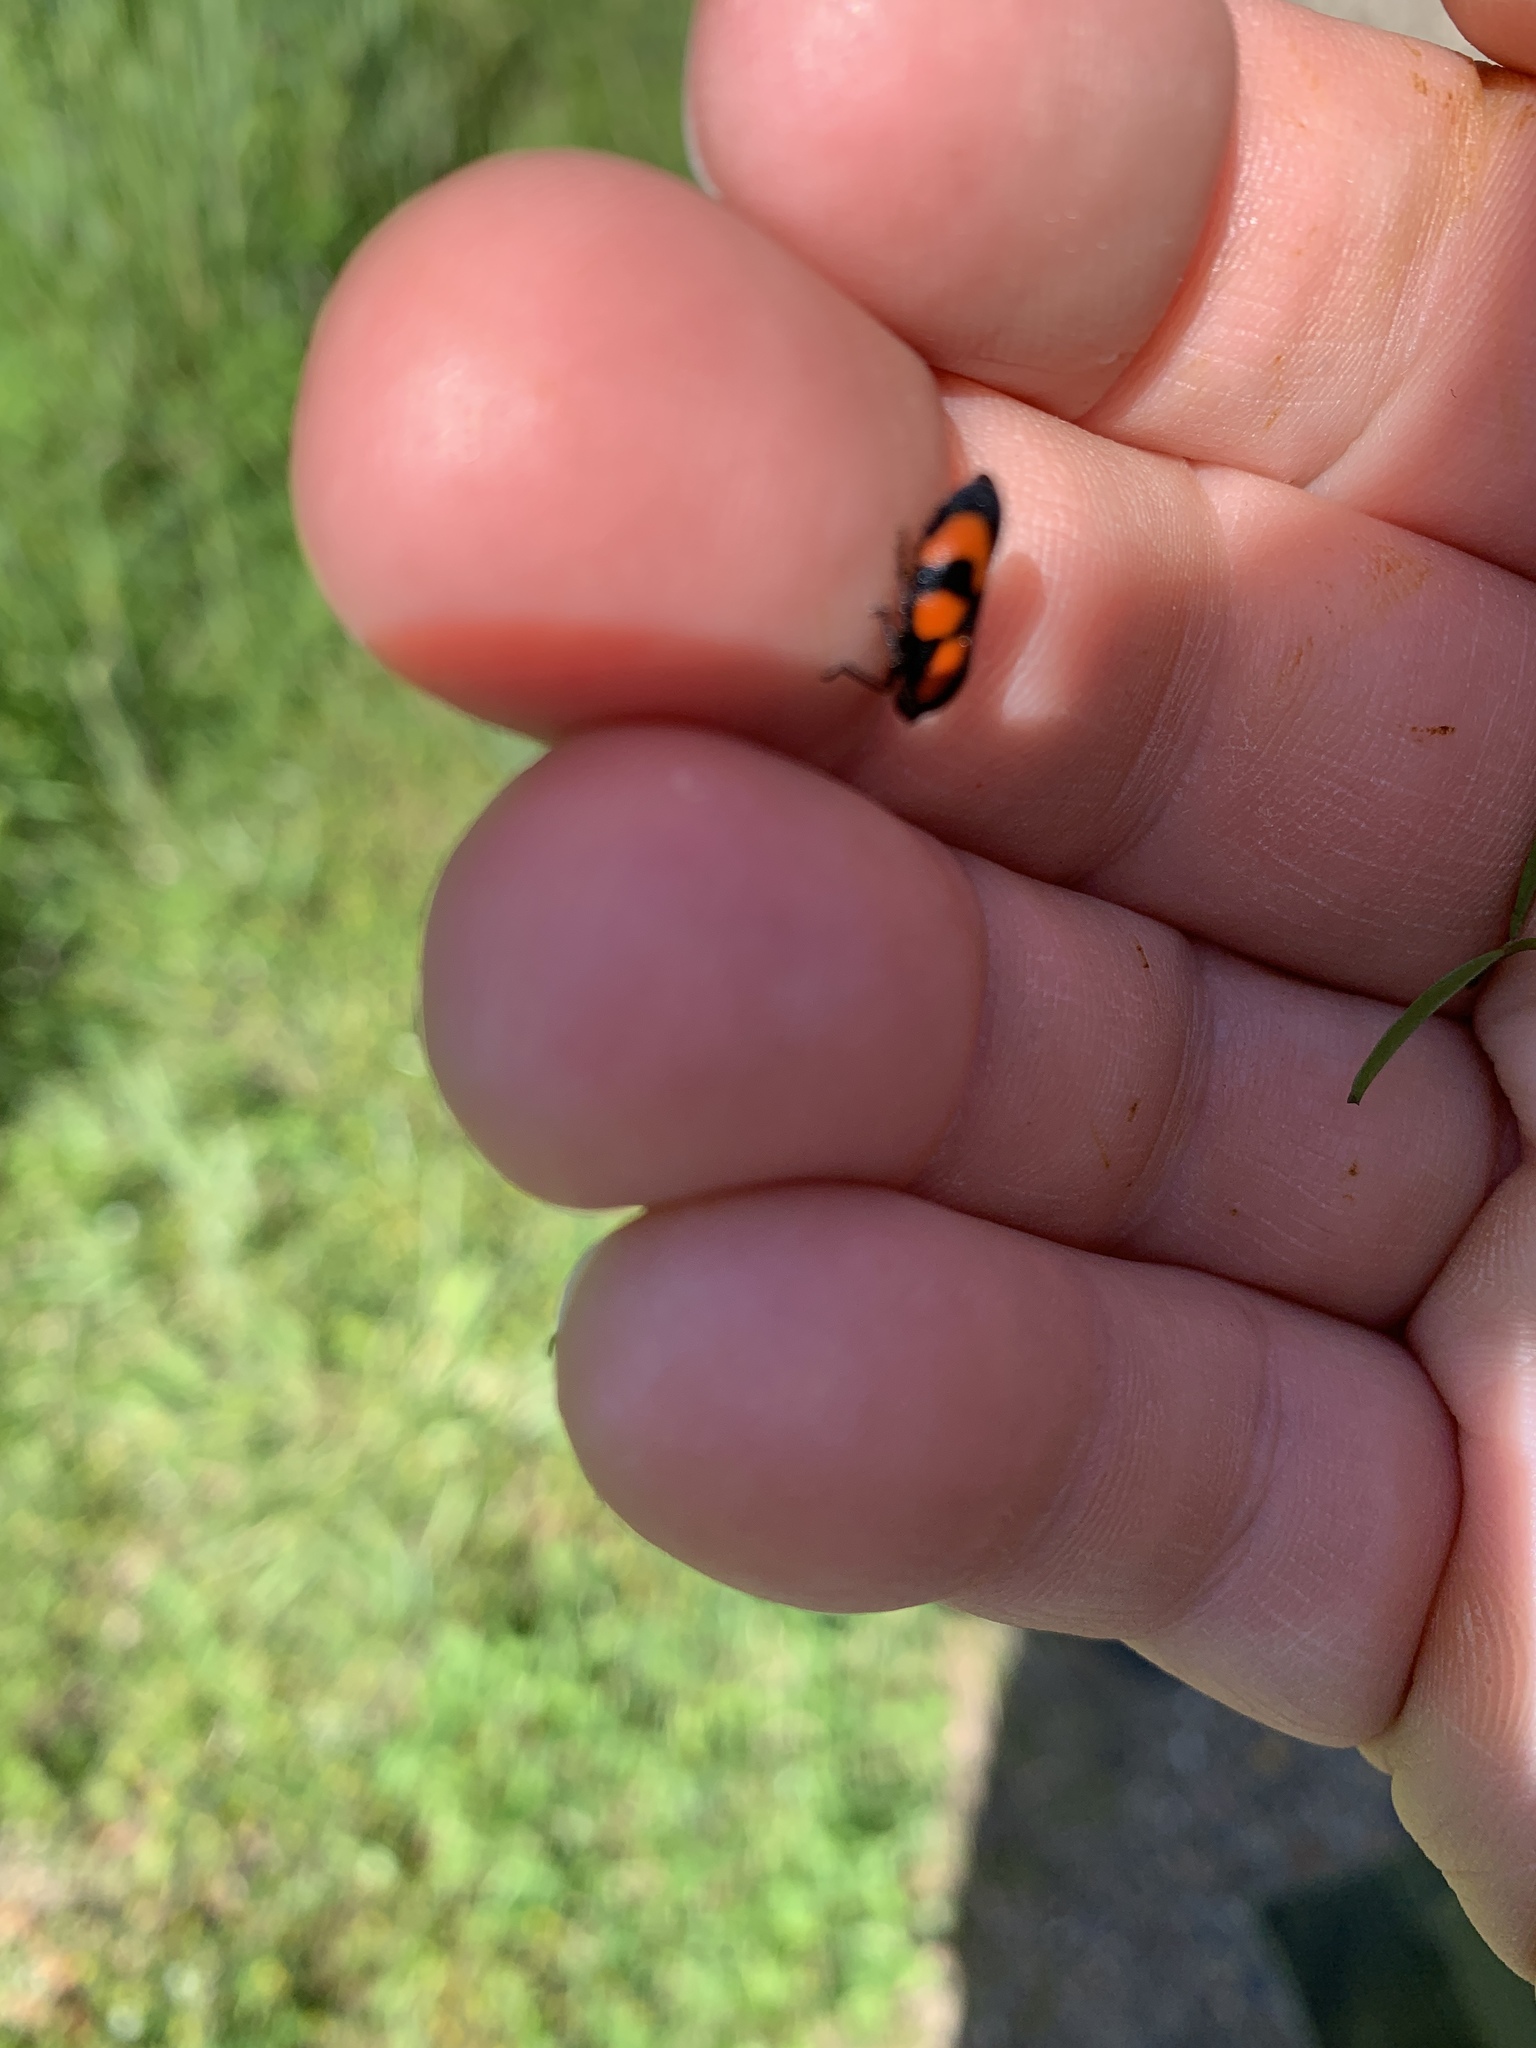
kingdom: Animalia
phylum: Arthropoda
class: Insecta
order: Hemiptera
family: Cercopidae
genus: Cercopis
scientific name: Cercopis vulnerata
